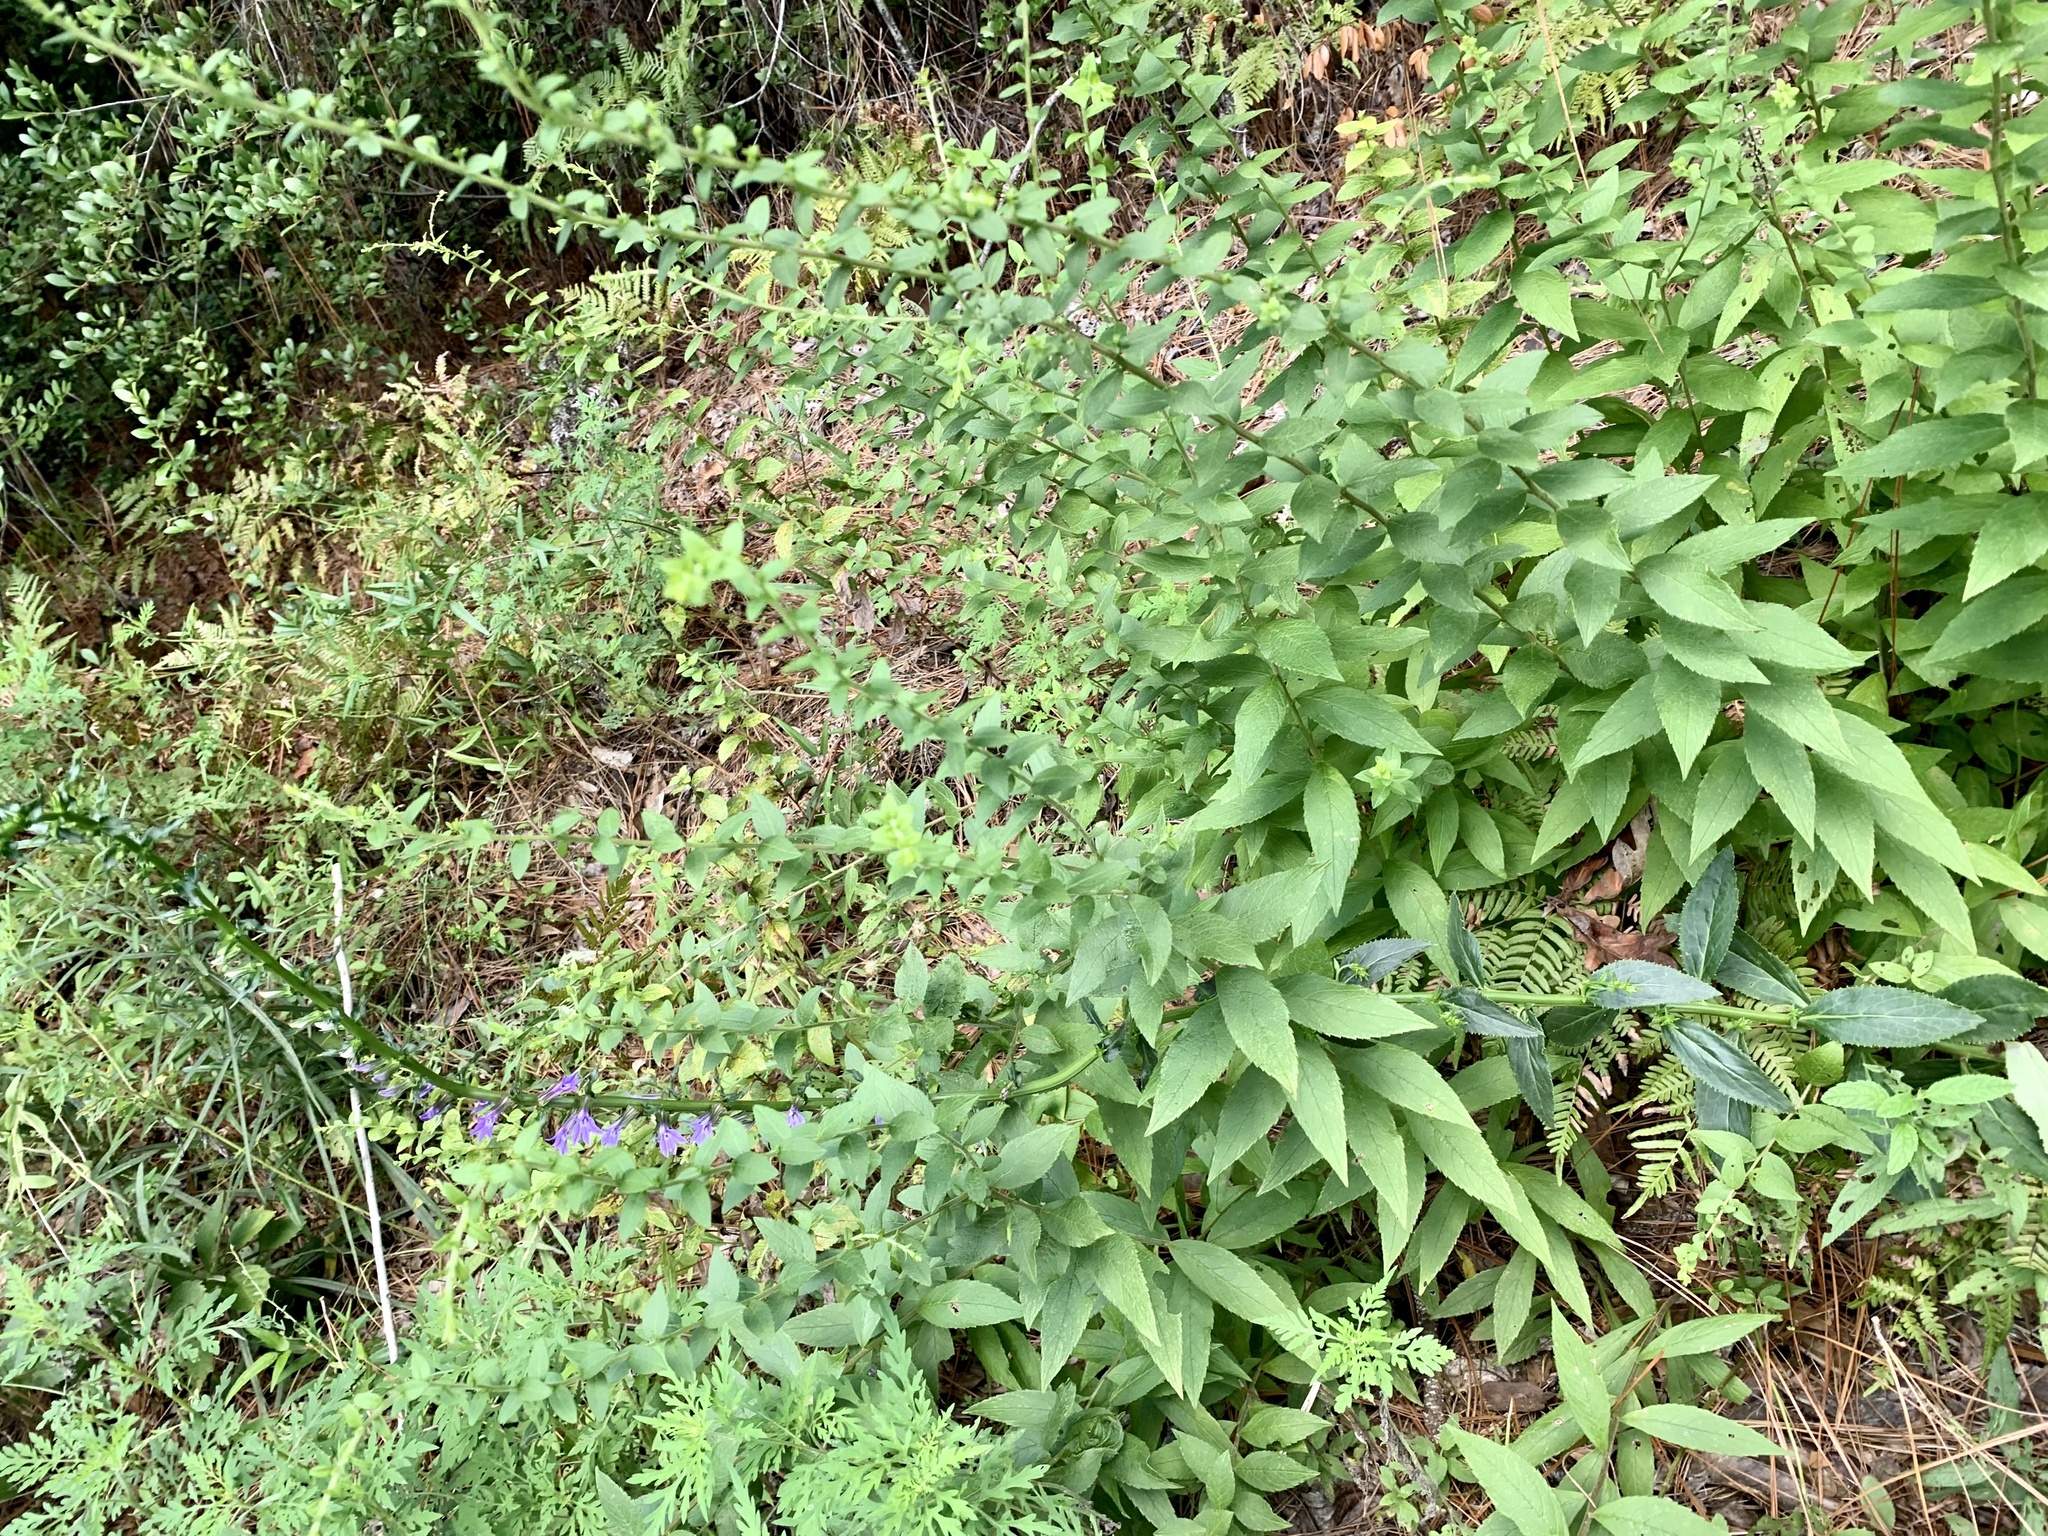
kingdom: Plantae
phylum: Tracheophyta
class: Magnoliopsida
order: Asterales
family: Campanulaceae
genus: Lobelia
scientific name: Lobelia puberula
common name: Purple dewdrop
